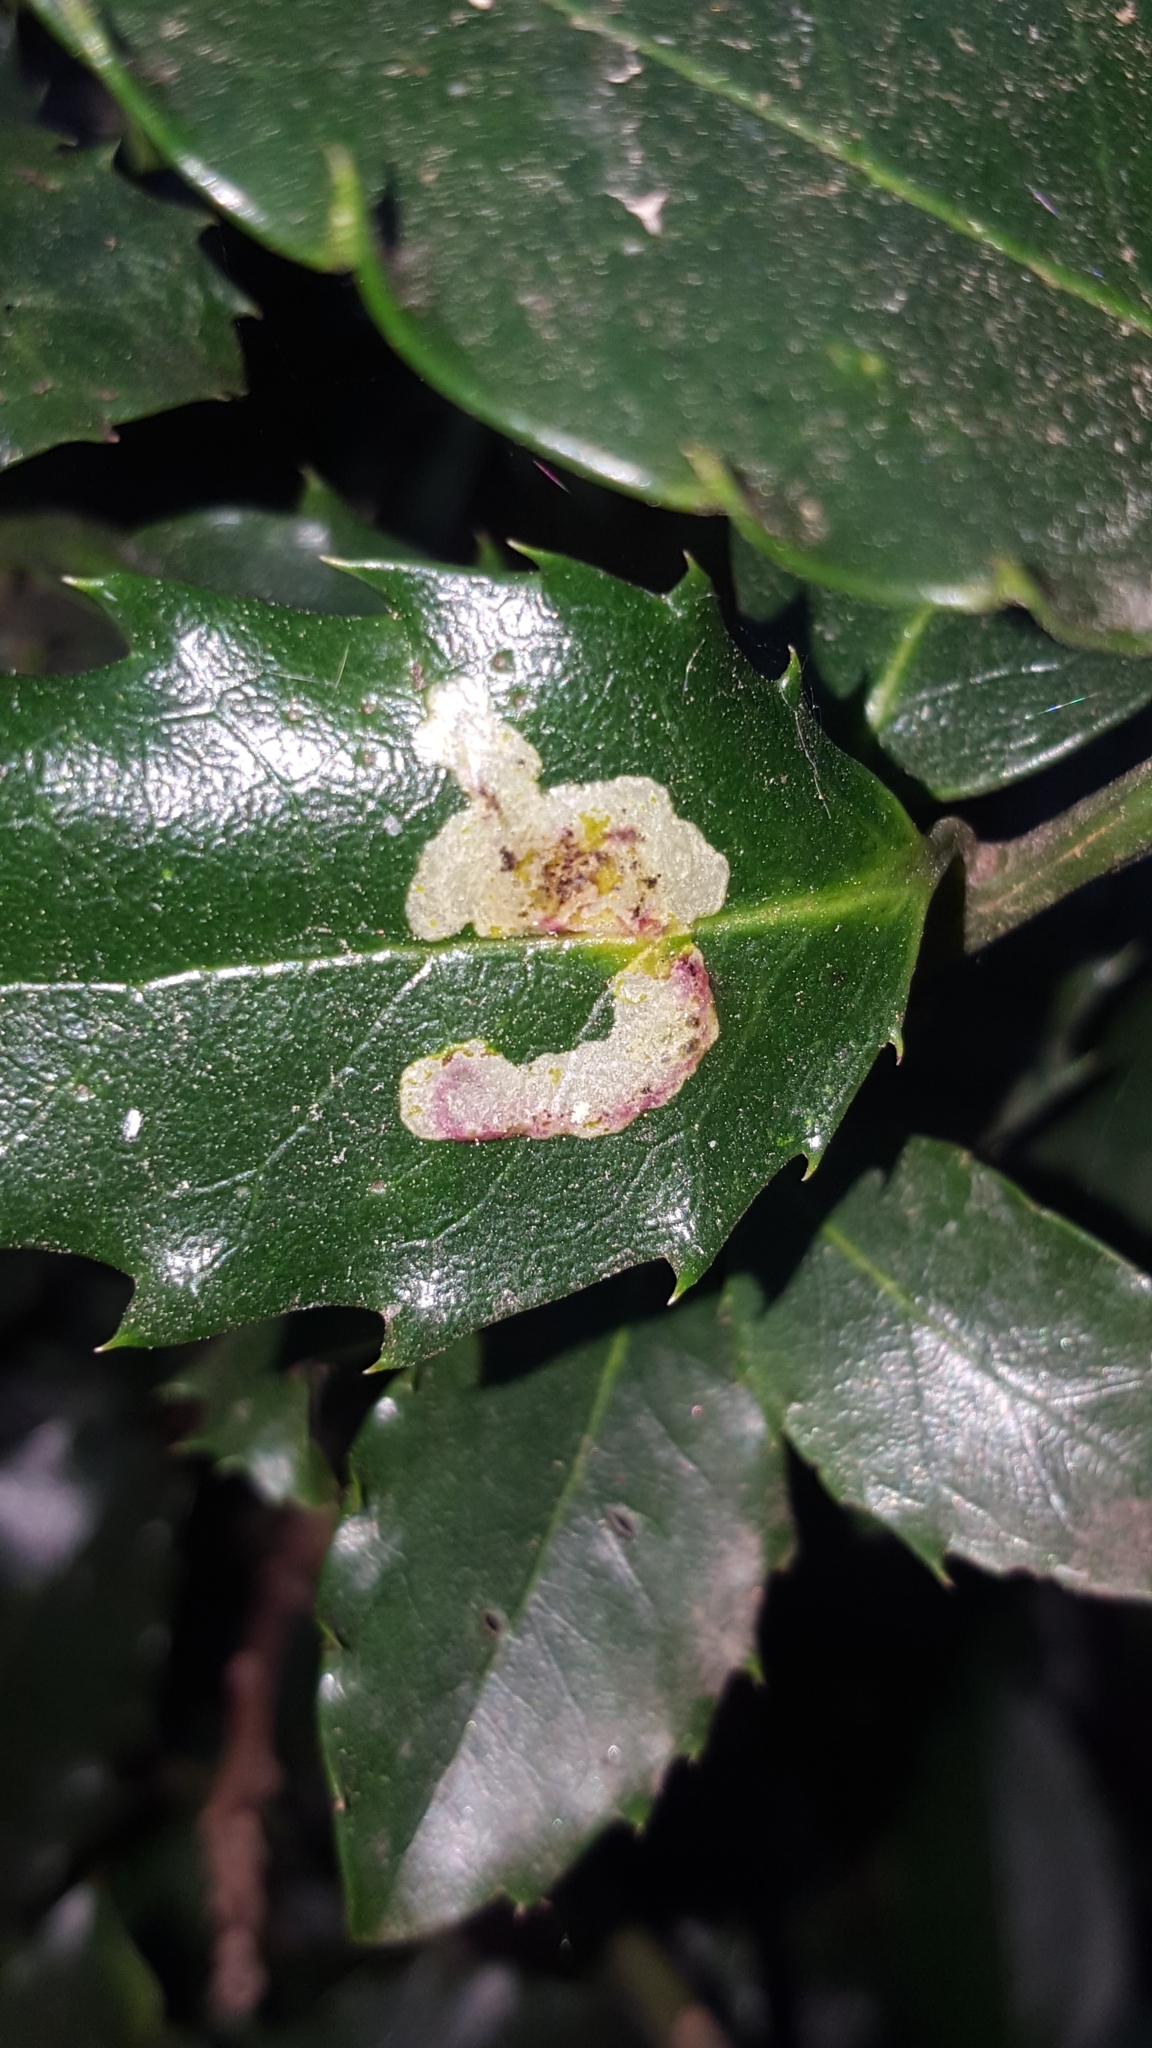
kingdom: Animalia
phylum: Arthropoda
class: Insecta
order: Diptera
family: Agromyzidae
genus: Phytomyza
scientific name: Phytomyza ilicis
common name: Holly leafminer
